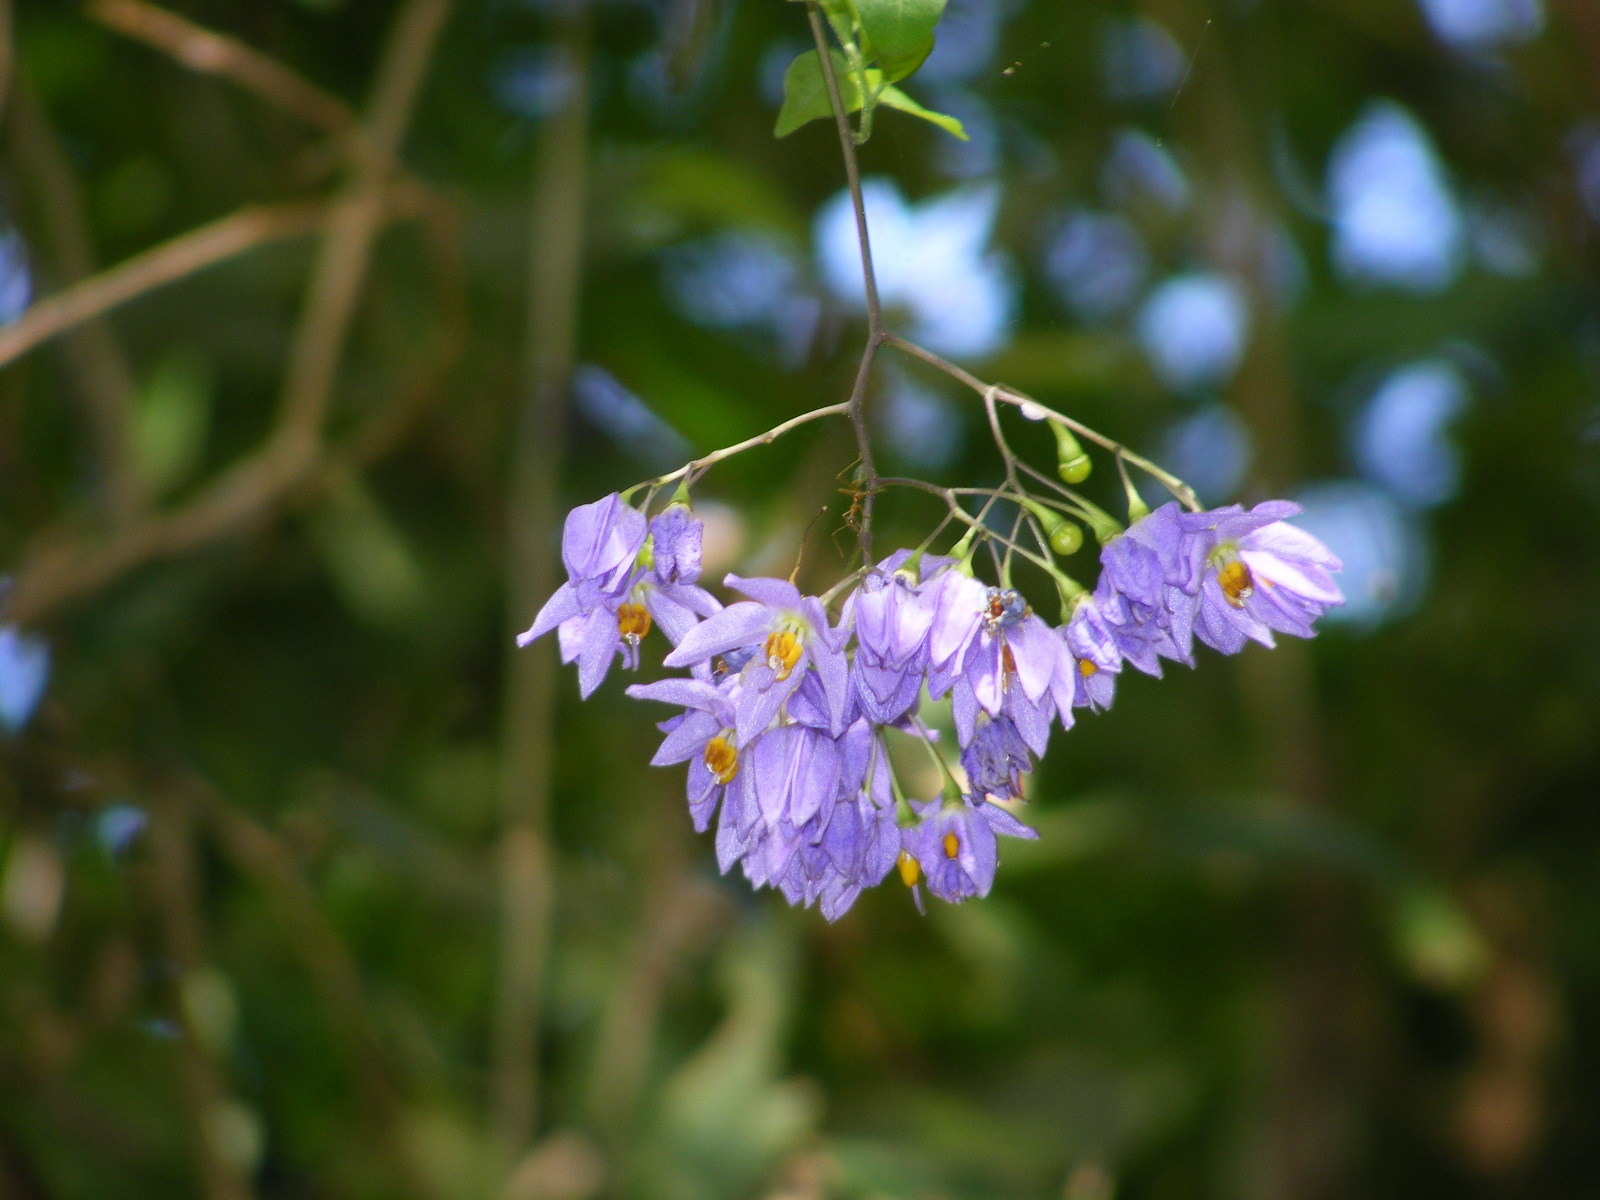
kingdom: Plantae
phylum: Tracheophyta
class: Magnoliopsida
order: Solanales
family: Solanaceae
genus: Solanum
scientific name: Solanum seaforthianum
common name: Brazilian nightshade
